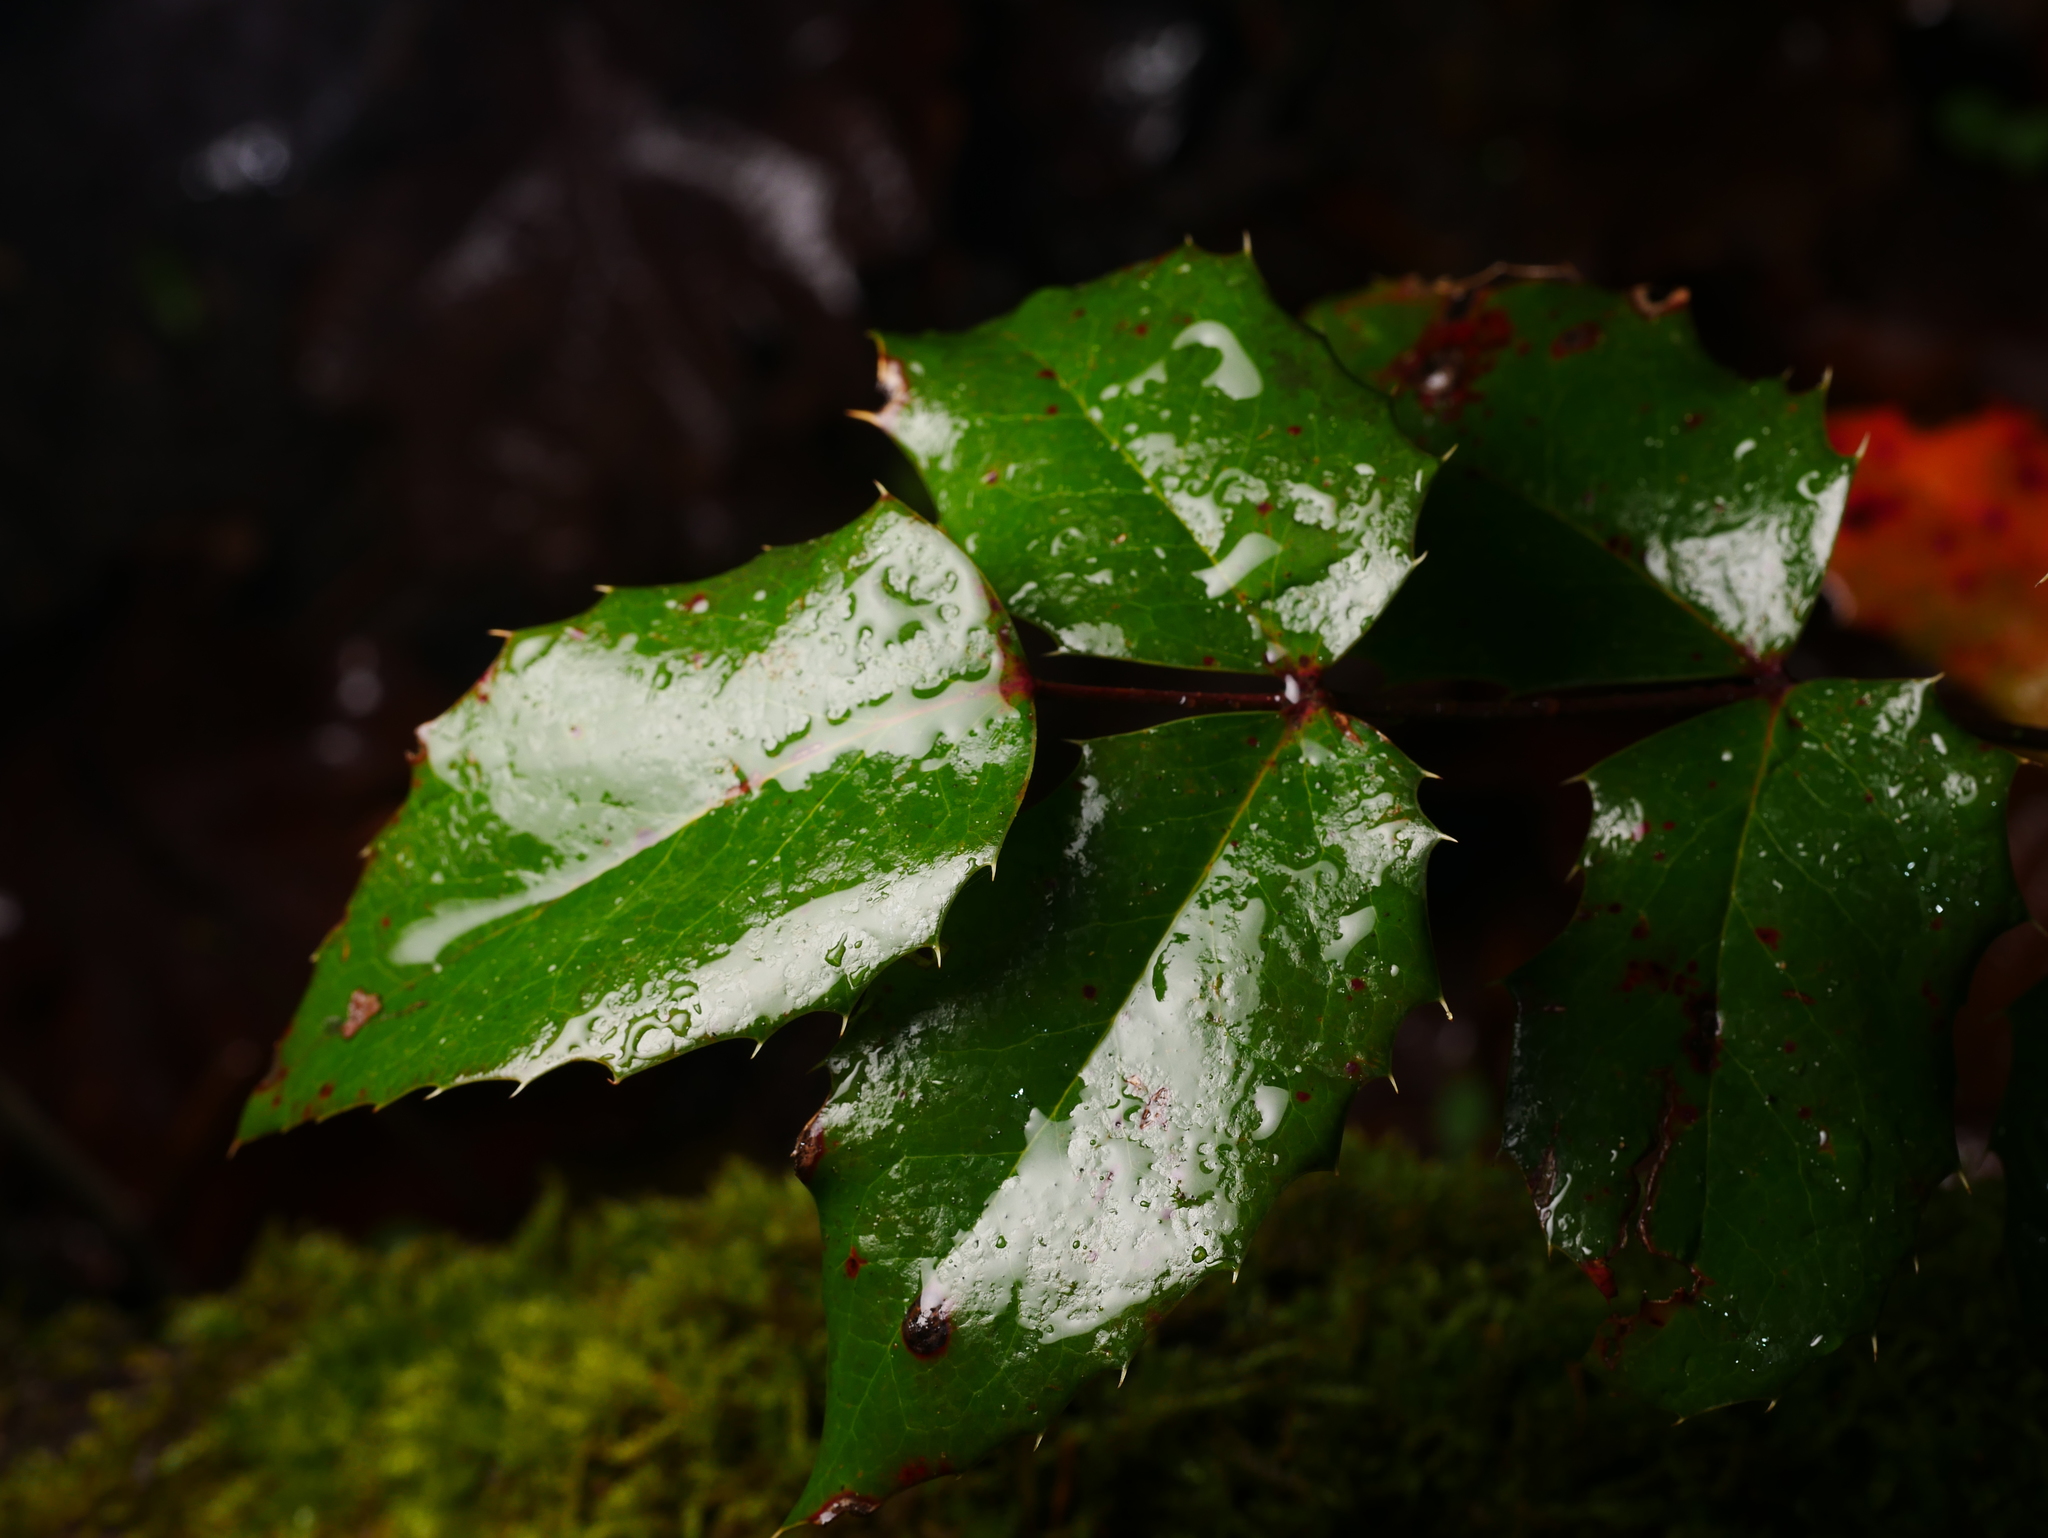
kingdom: Plantae
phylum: Tracheophyta
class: Magnoliopsida
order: Ranunculales
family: Berberidaceae
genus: Mahonia
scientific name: Mahonia aquifolium
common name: Oregon-grape
